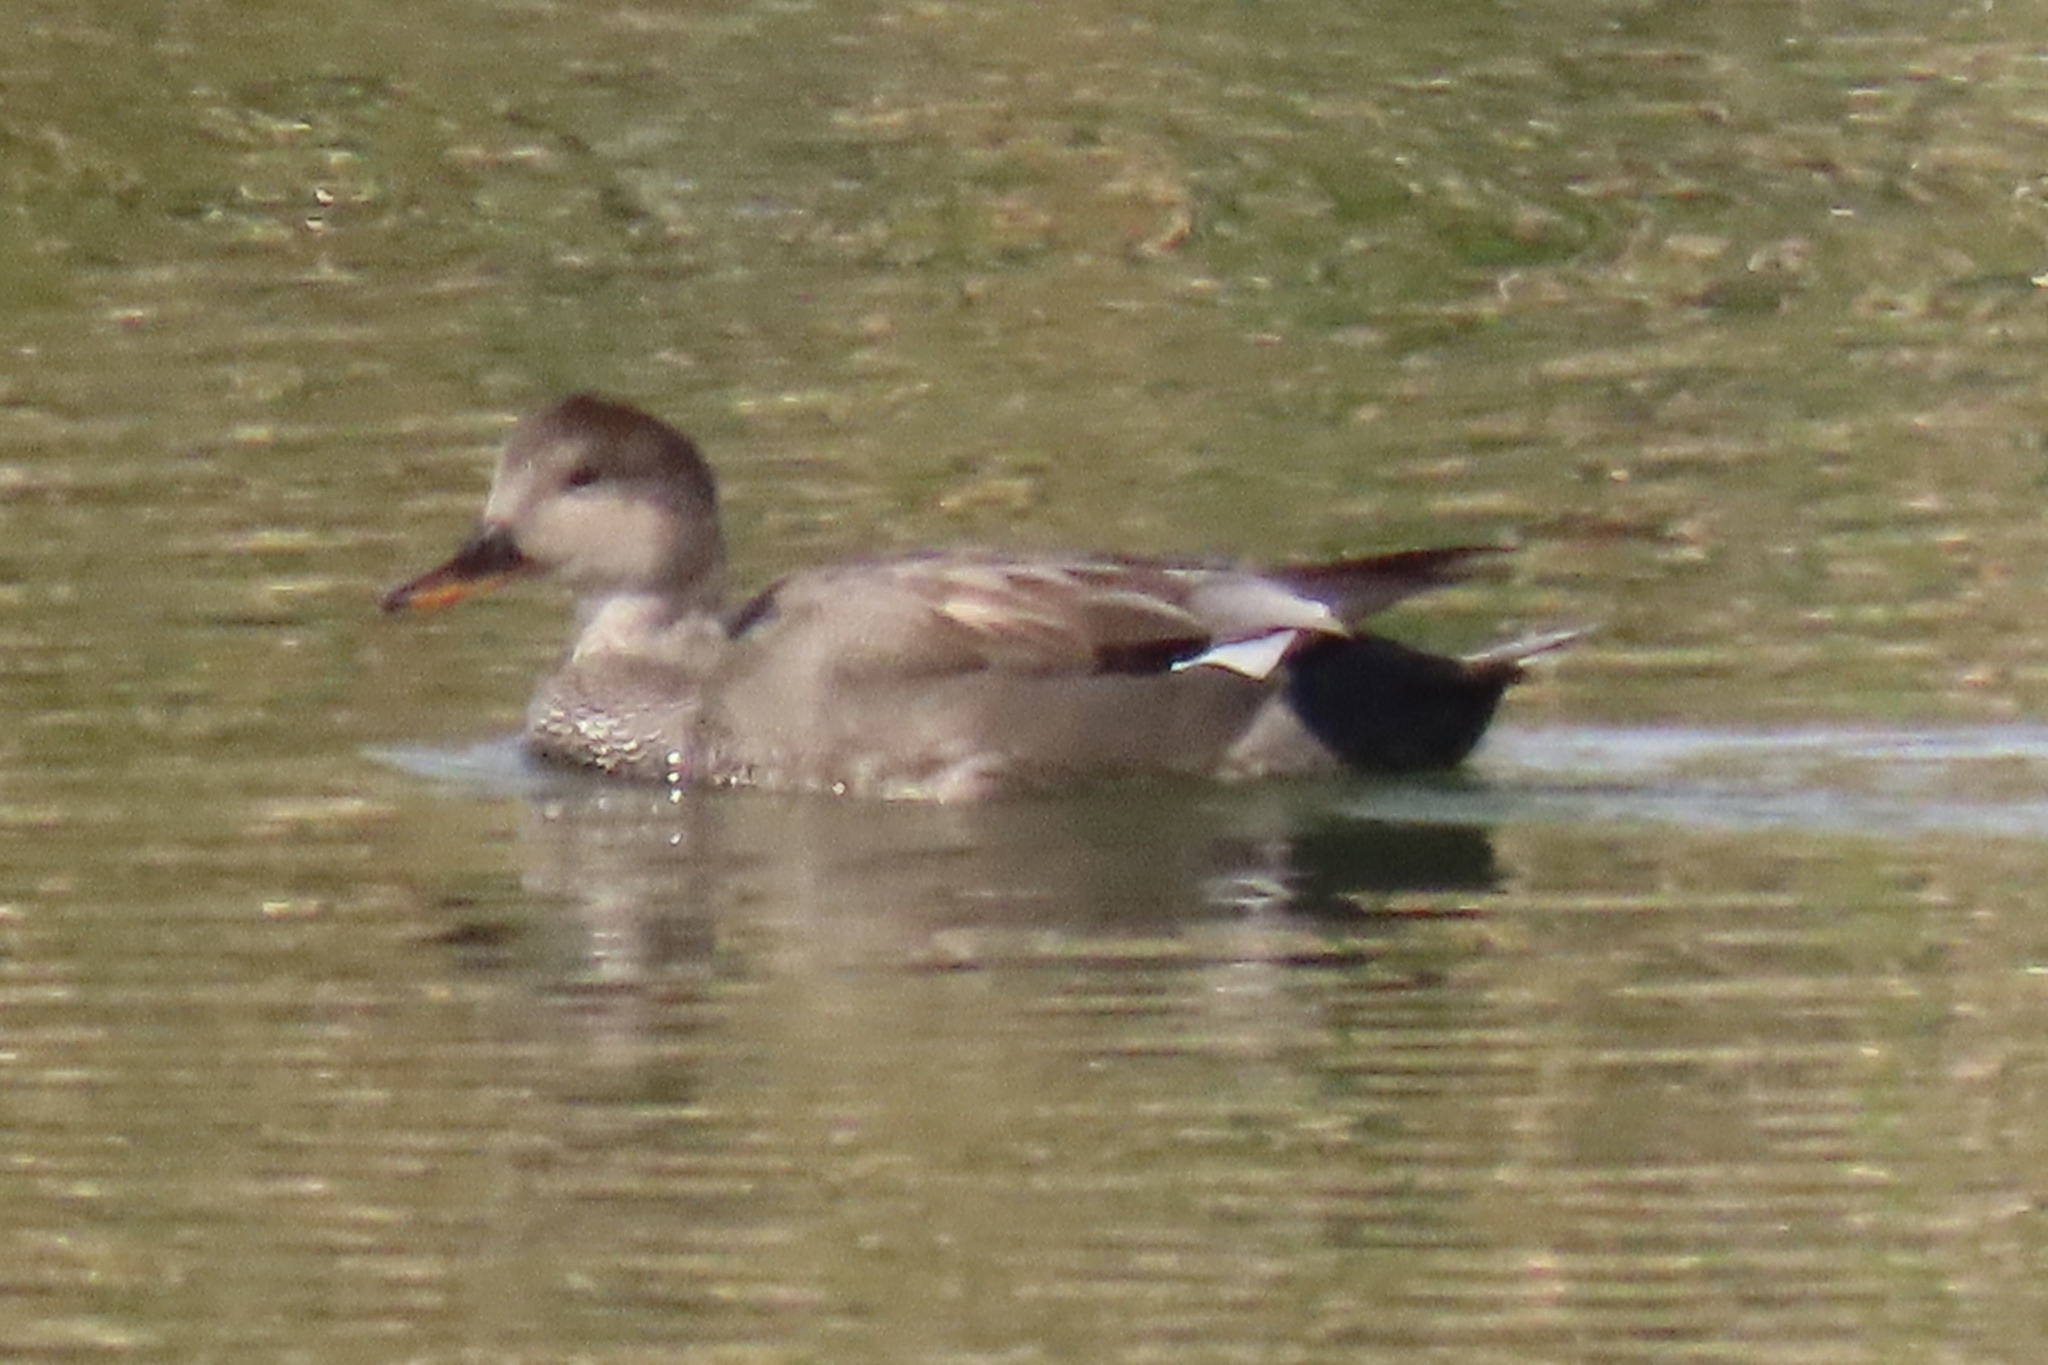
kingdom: Animalia
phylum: Chordata
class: Aves
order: Anseriformes
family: Anatidae
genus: Mareca
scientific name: Mareca strepera
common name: Gadwall
